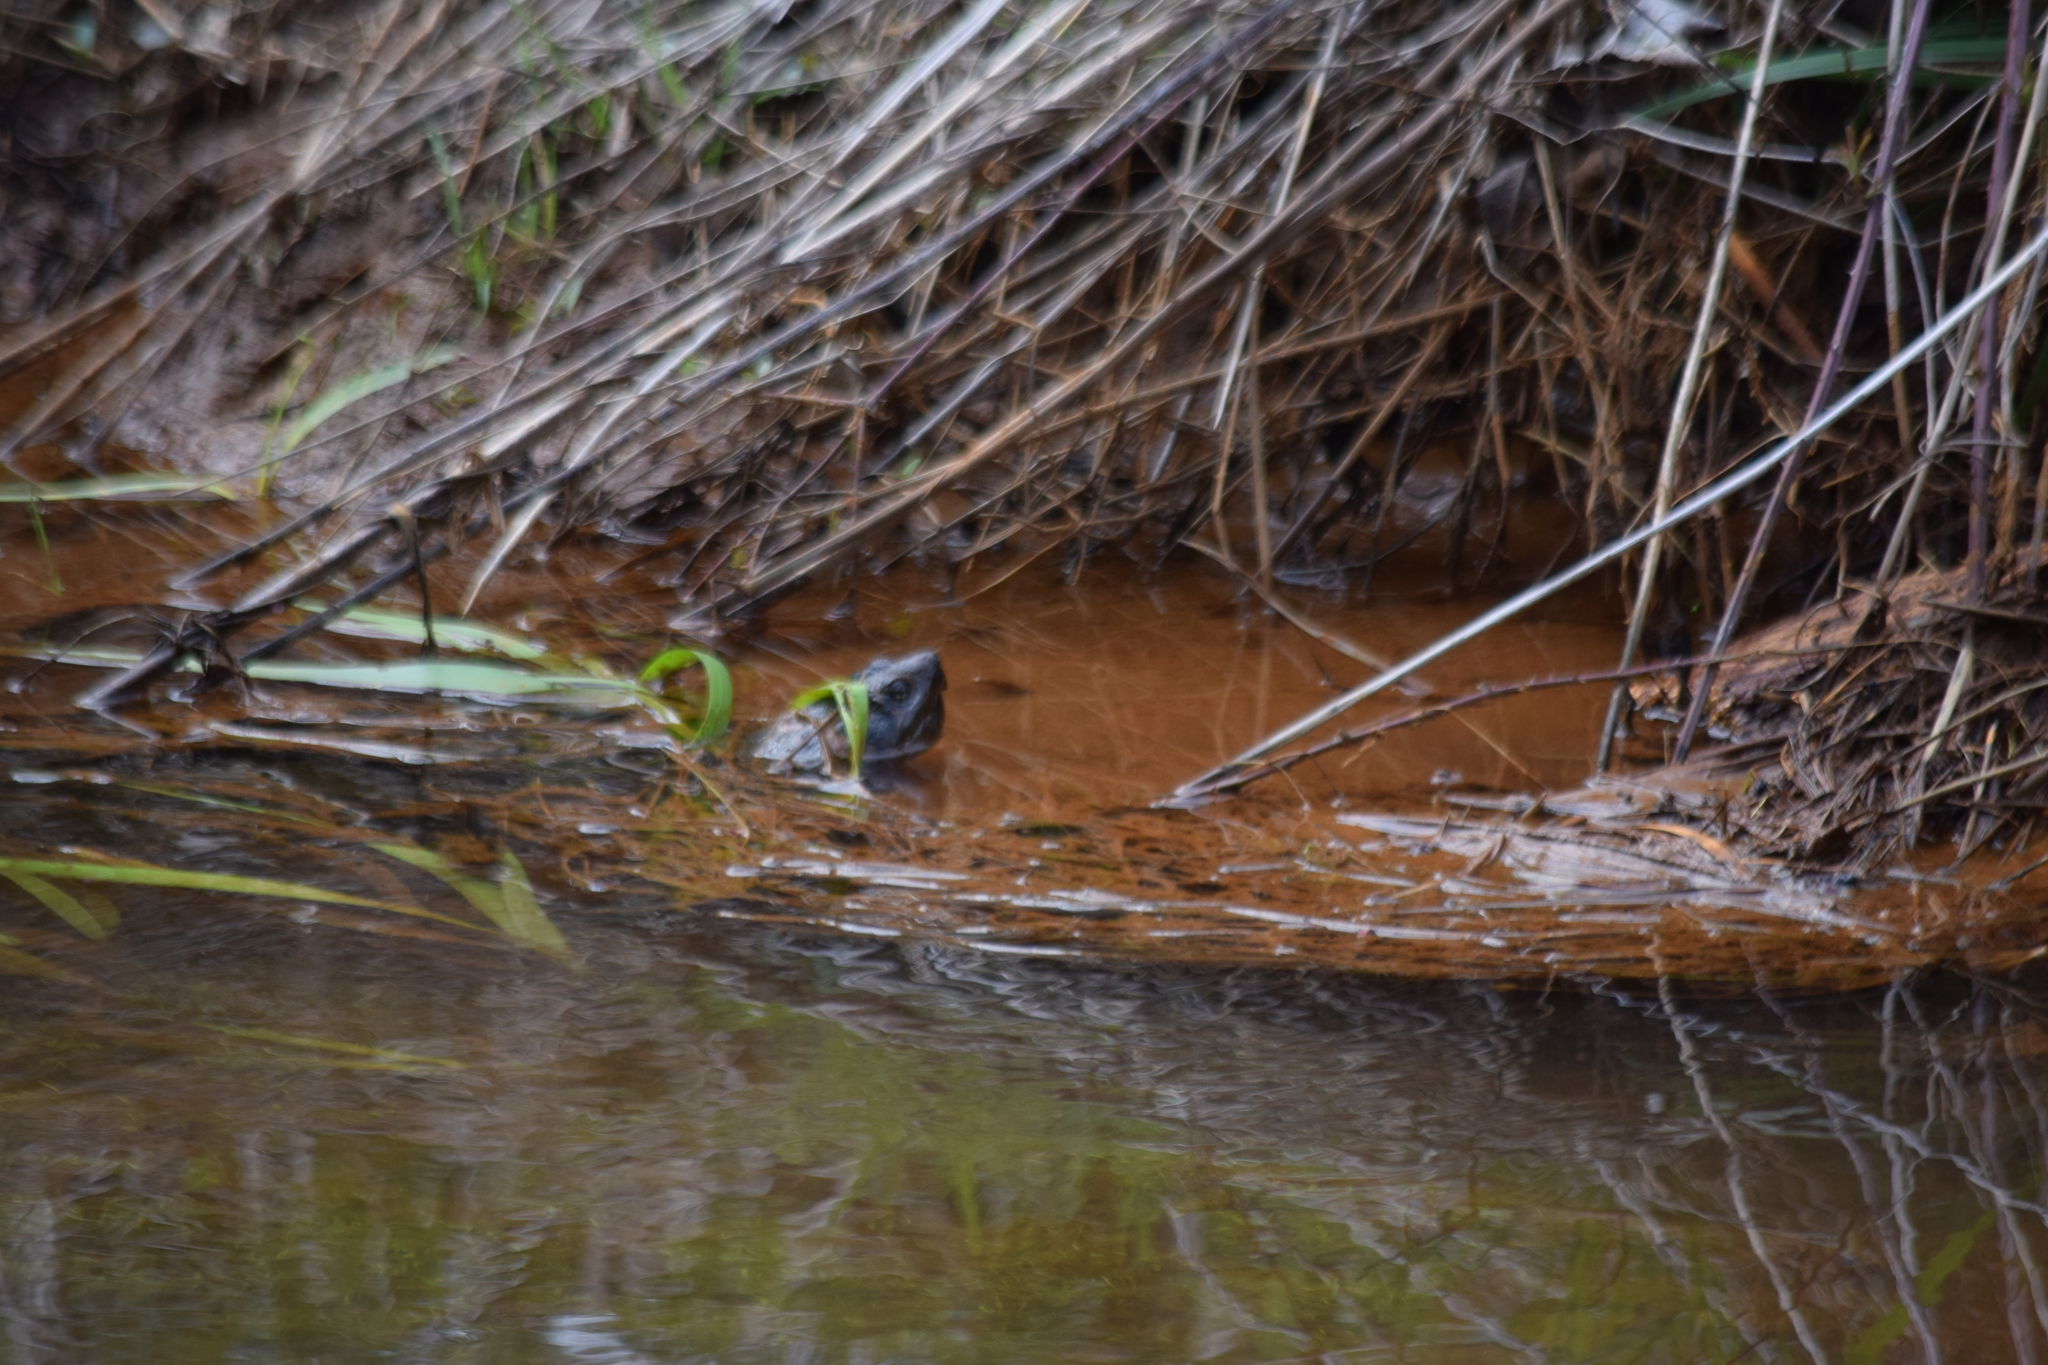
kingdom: Animalia
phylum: Chordata
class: Testudines
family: Chelydridae
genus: Chelydra
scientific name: Chelydra serpentina
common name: Common snapping turtle
